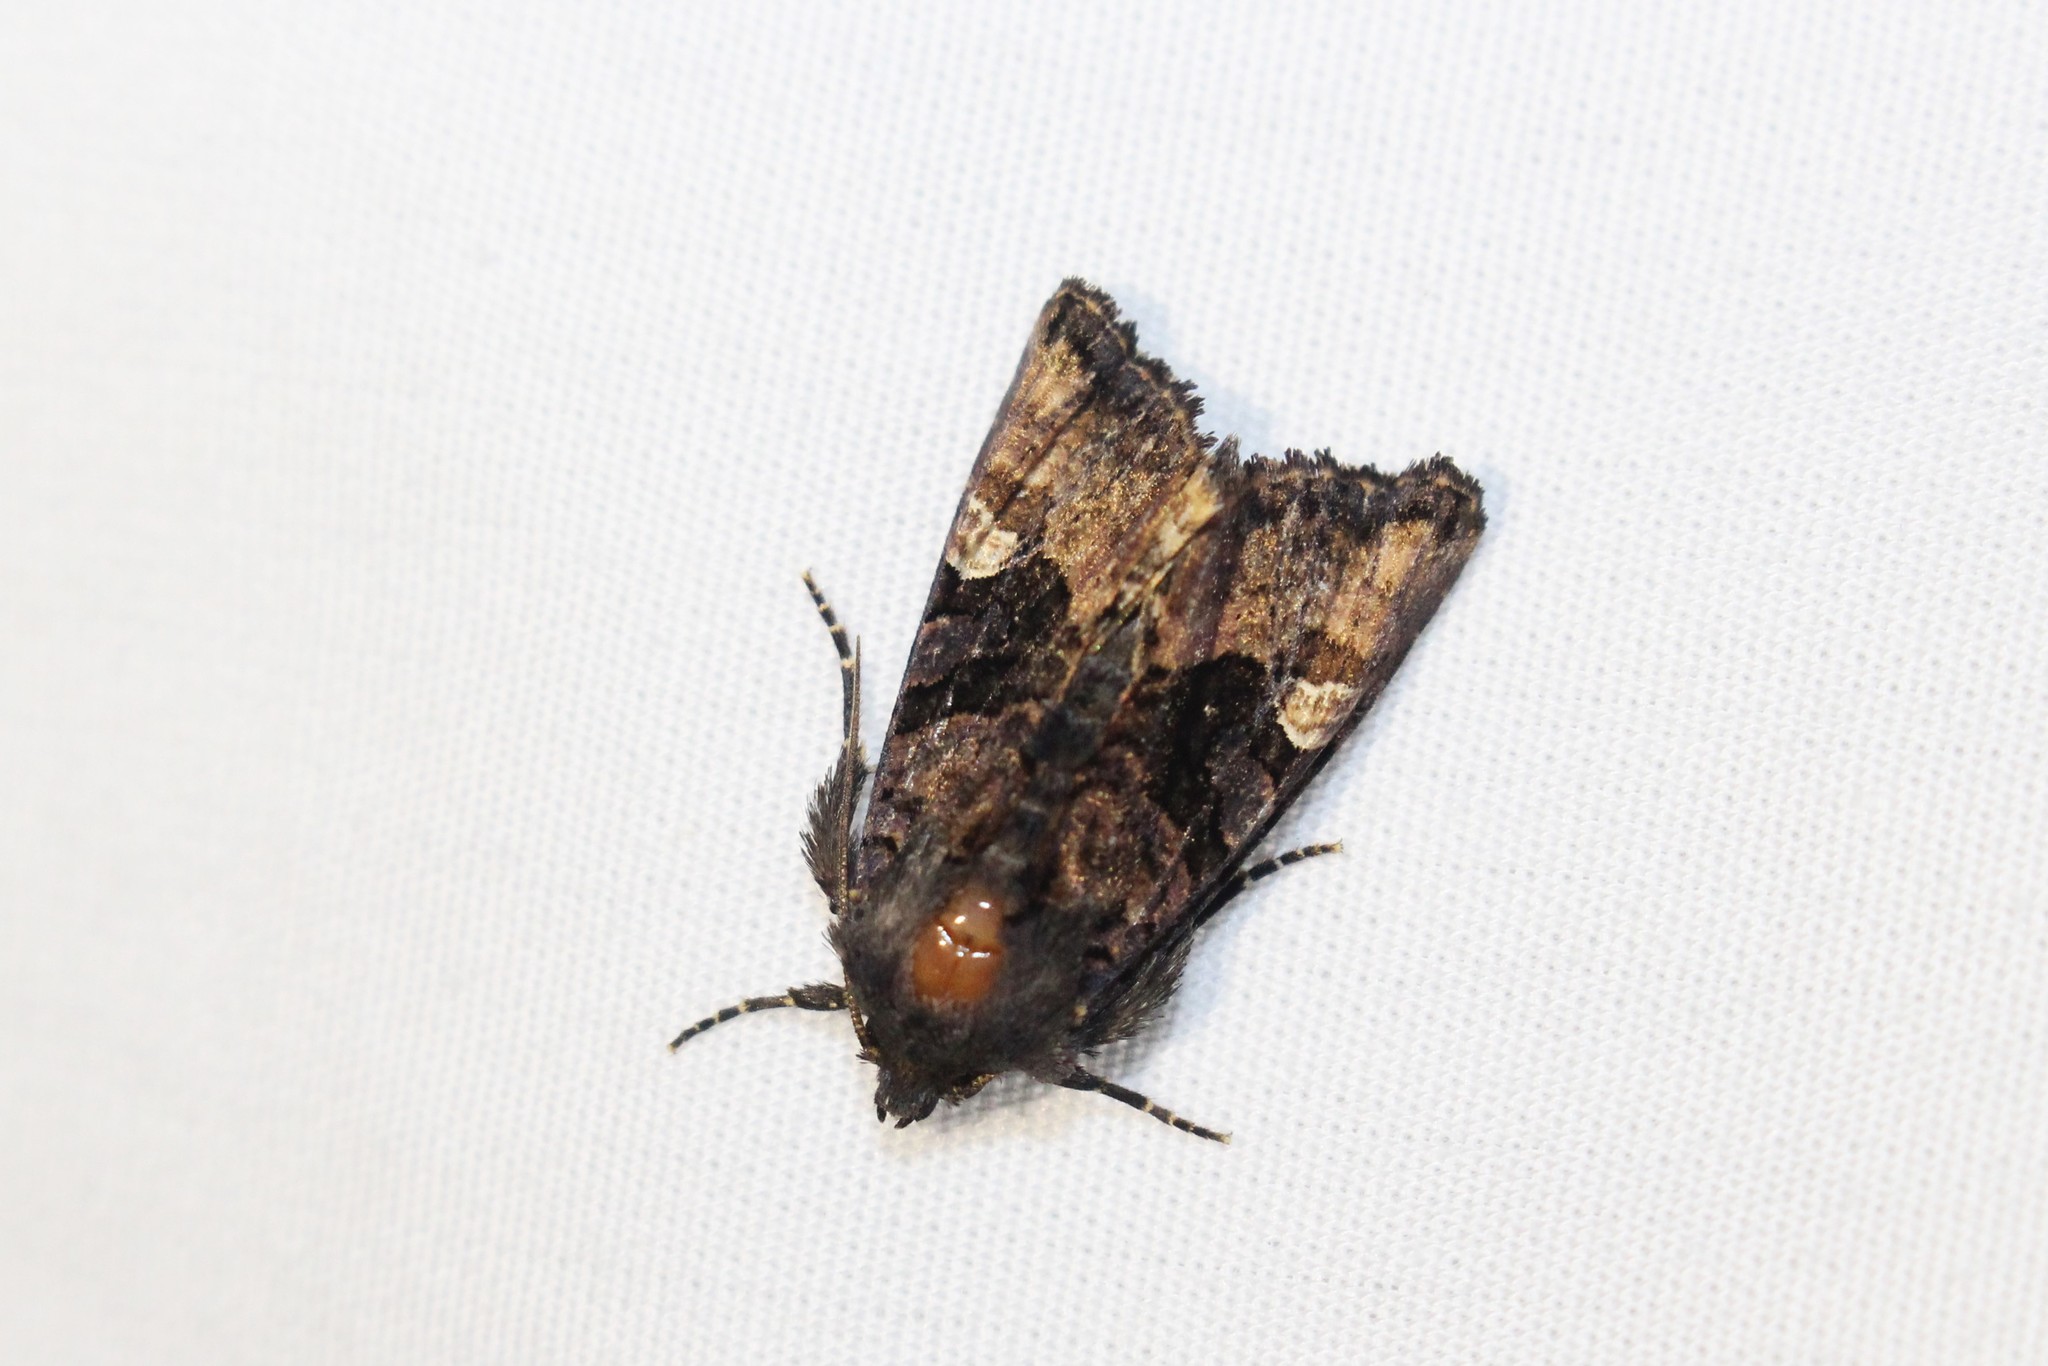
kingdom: Animalia
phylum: Arthropoda
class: Insecta
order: Lepidoptera
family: Noctuidae
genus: Euplexia
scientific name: Euplexia benesimilis
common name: American angle shades
